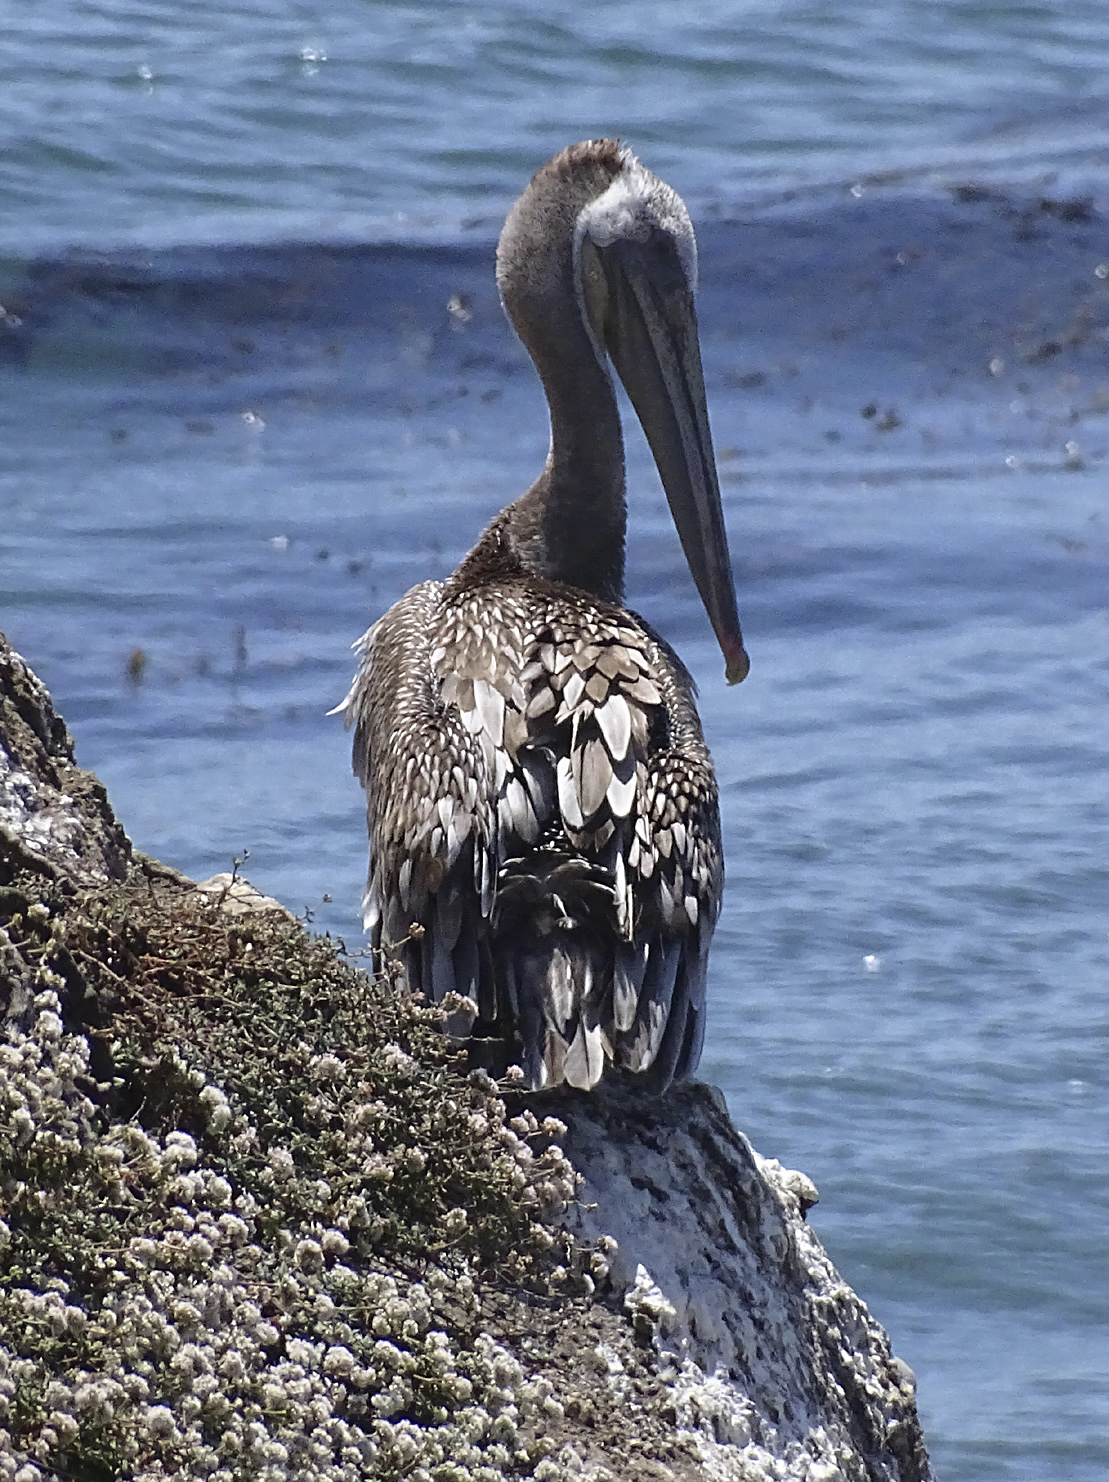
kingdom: Animalia
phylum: Chordata
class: Aves
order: Pelecaniformes
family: Pelecanidae
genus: Pelecanus
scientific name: Pelecanus occidentalis
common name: Brown pelican
